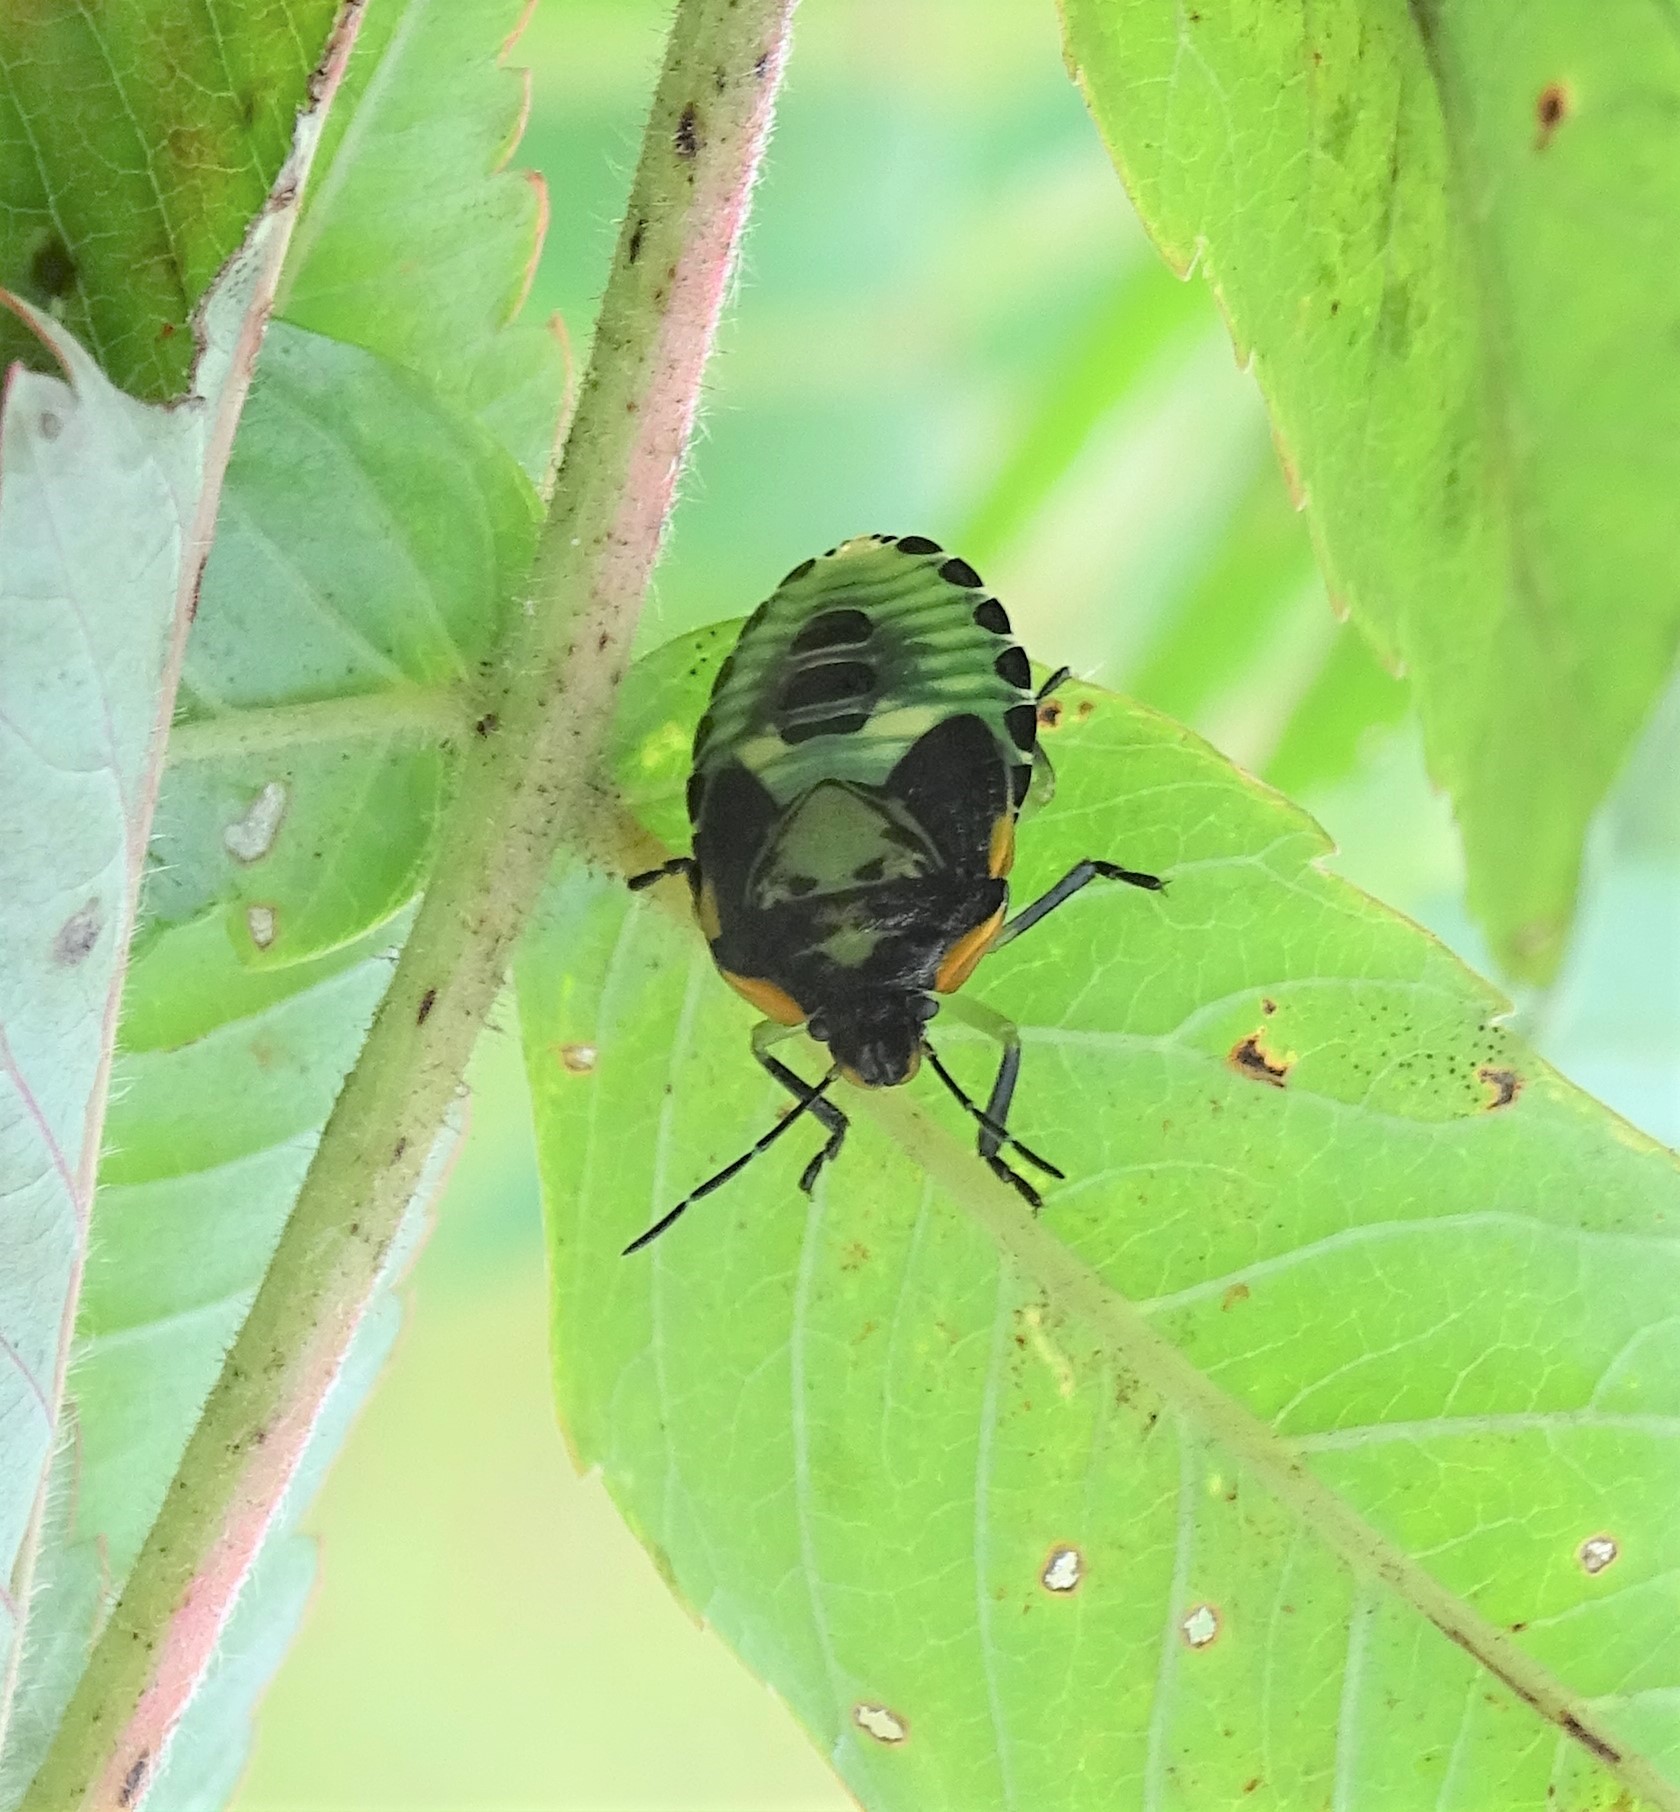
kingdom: Animalia
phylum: Arthropoda
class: Insecta
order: Hemiptera
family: Pentatomidae
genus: Chinavia
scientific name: Chinavia hilaris
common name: Green stink bug
